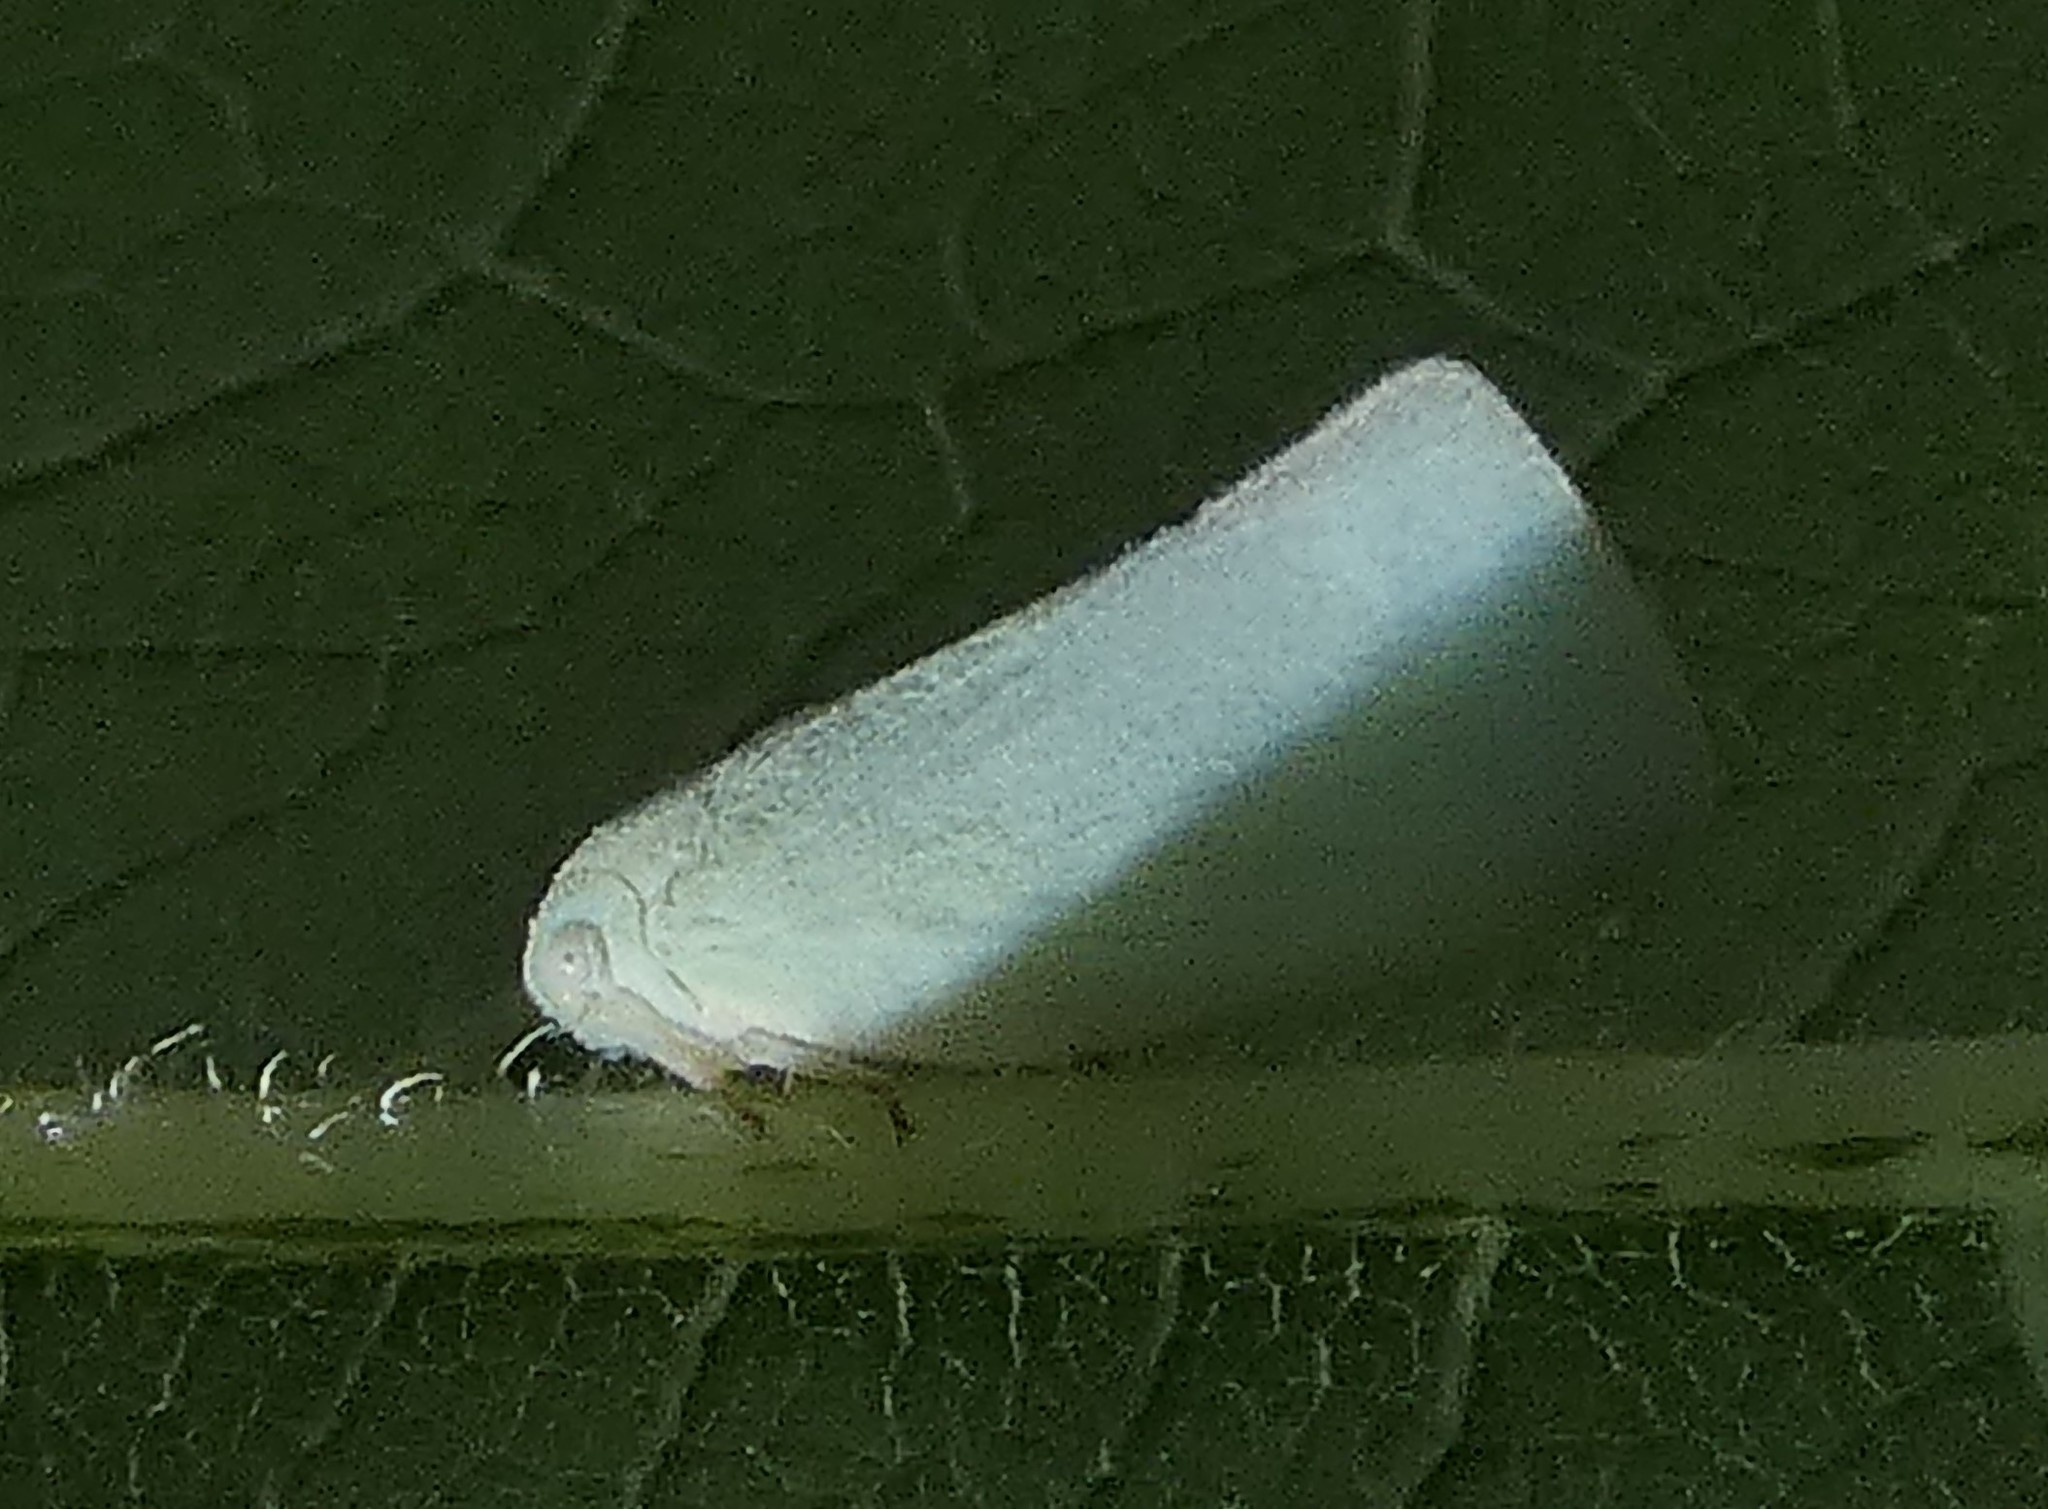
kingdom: Animalia
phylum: Arthropoda
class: Insecta
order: Hemiptera
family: Flatidae
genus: Flatormenis
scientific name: Flatormenis proxima
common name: Northern flatid planthopper
